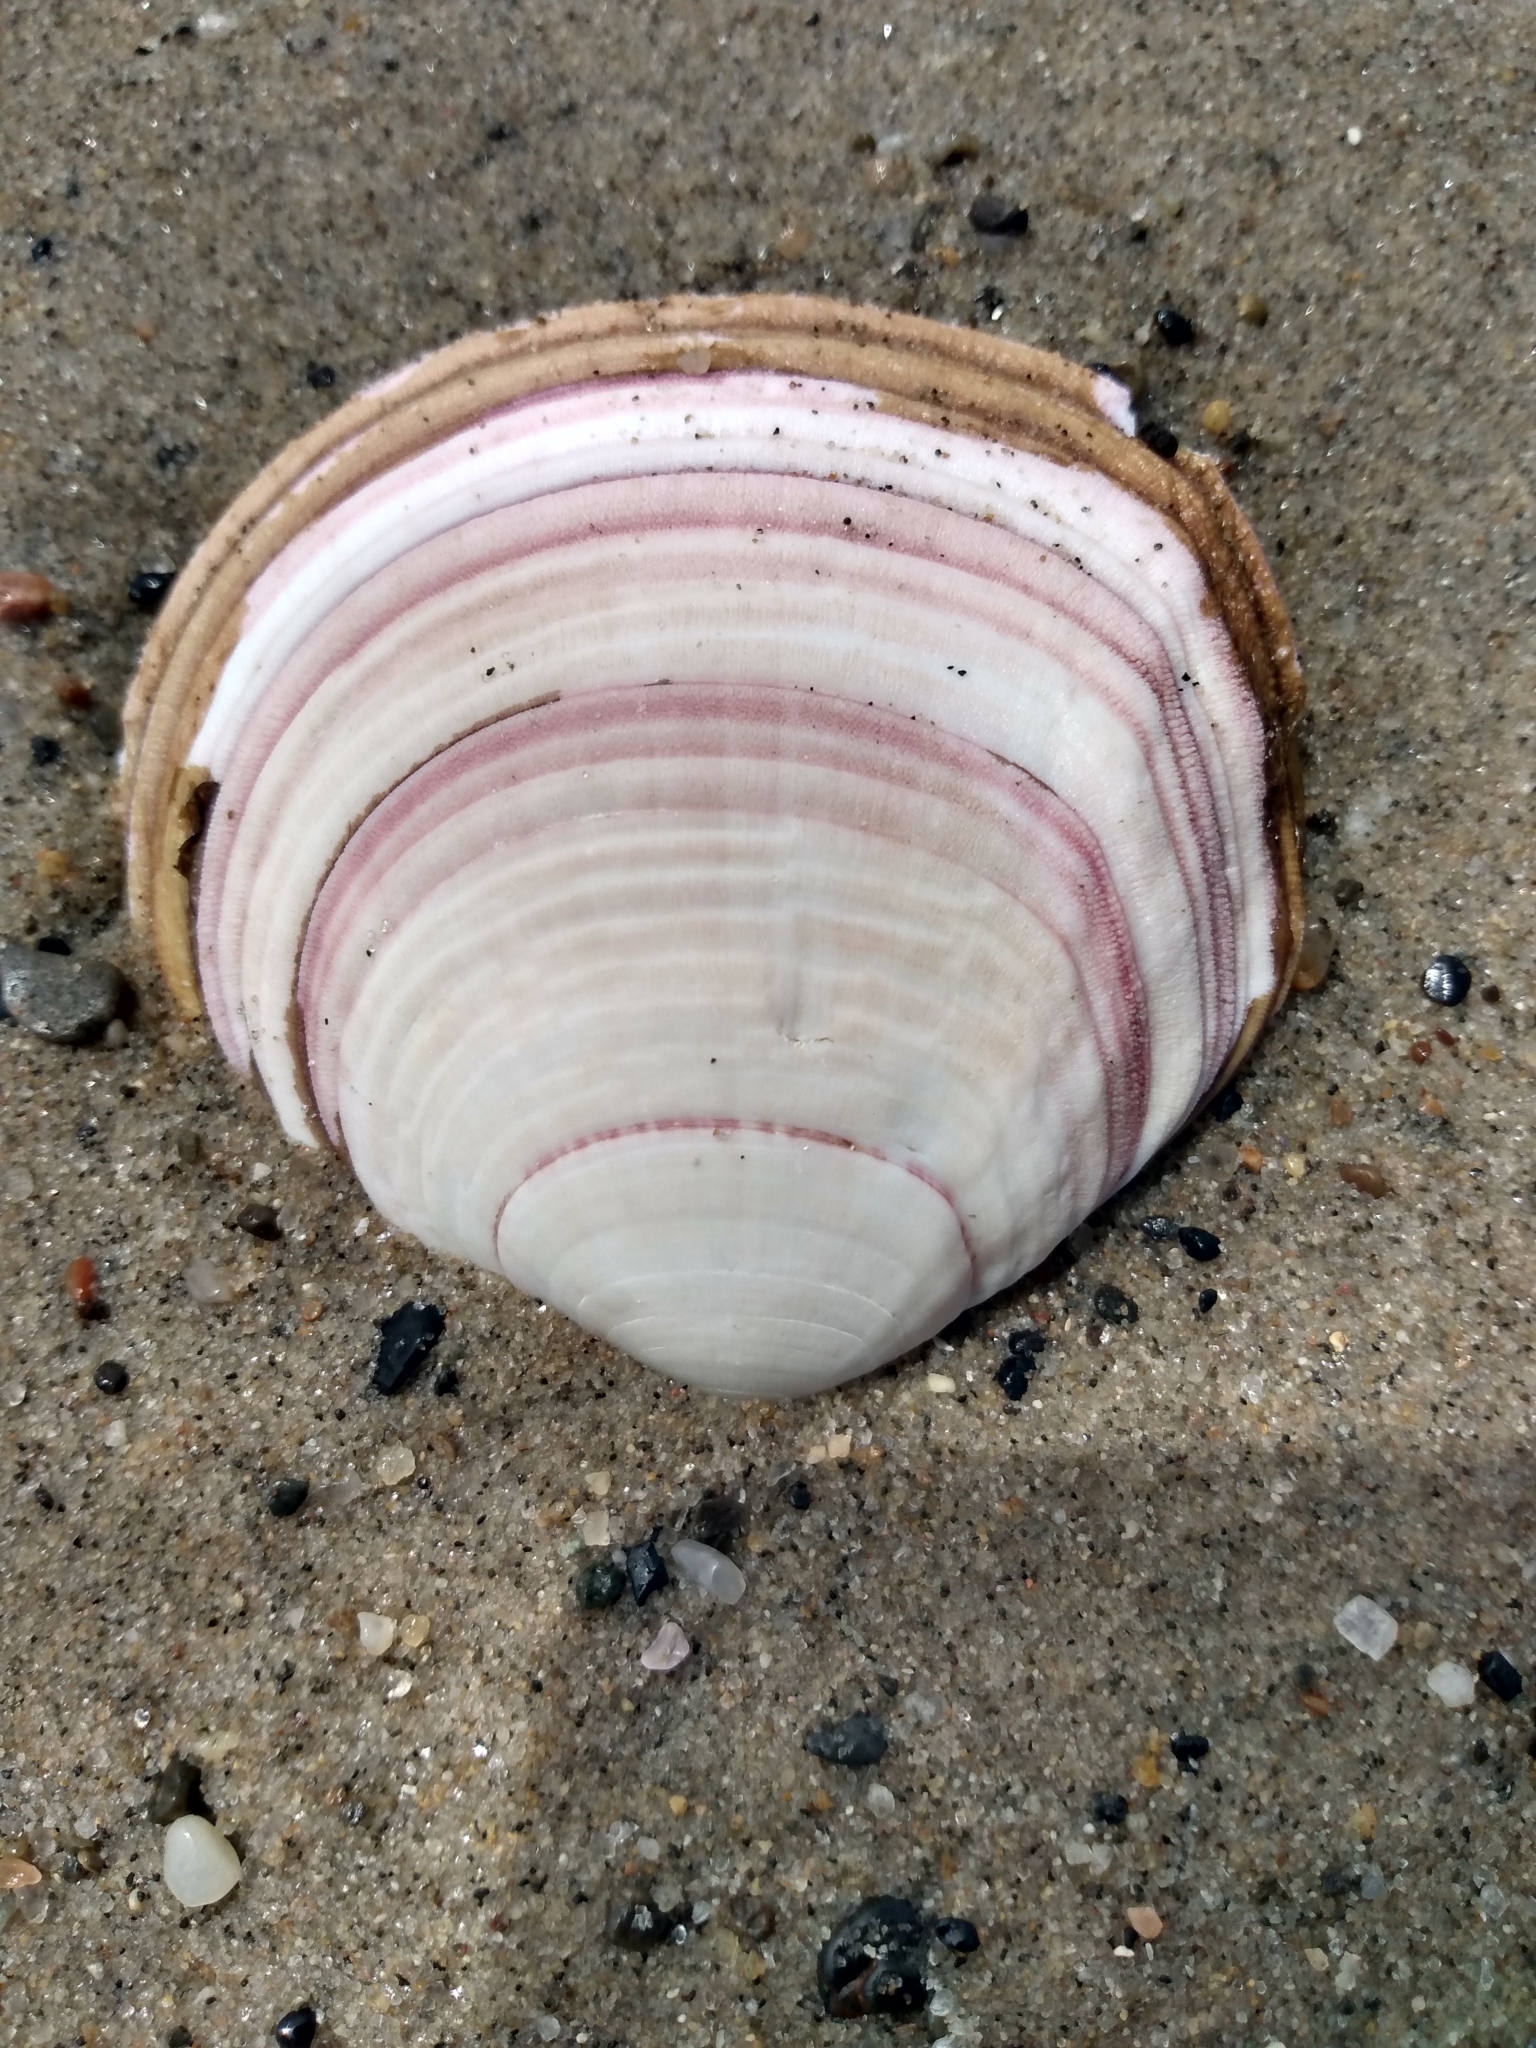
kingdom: Animalia
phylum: Mollusca
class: Bivalvia
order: Cardiida
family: Semelidae
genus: Semele
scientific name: Semele decisa
